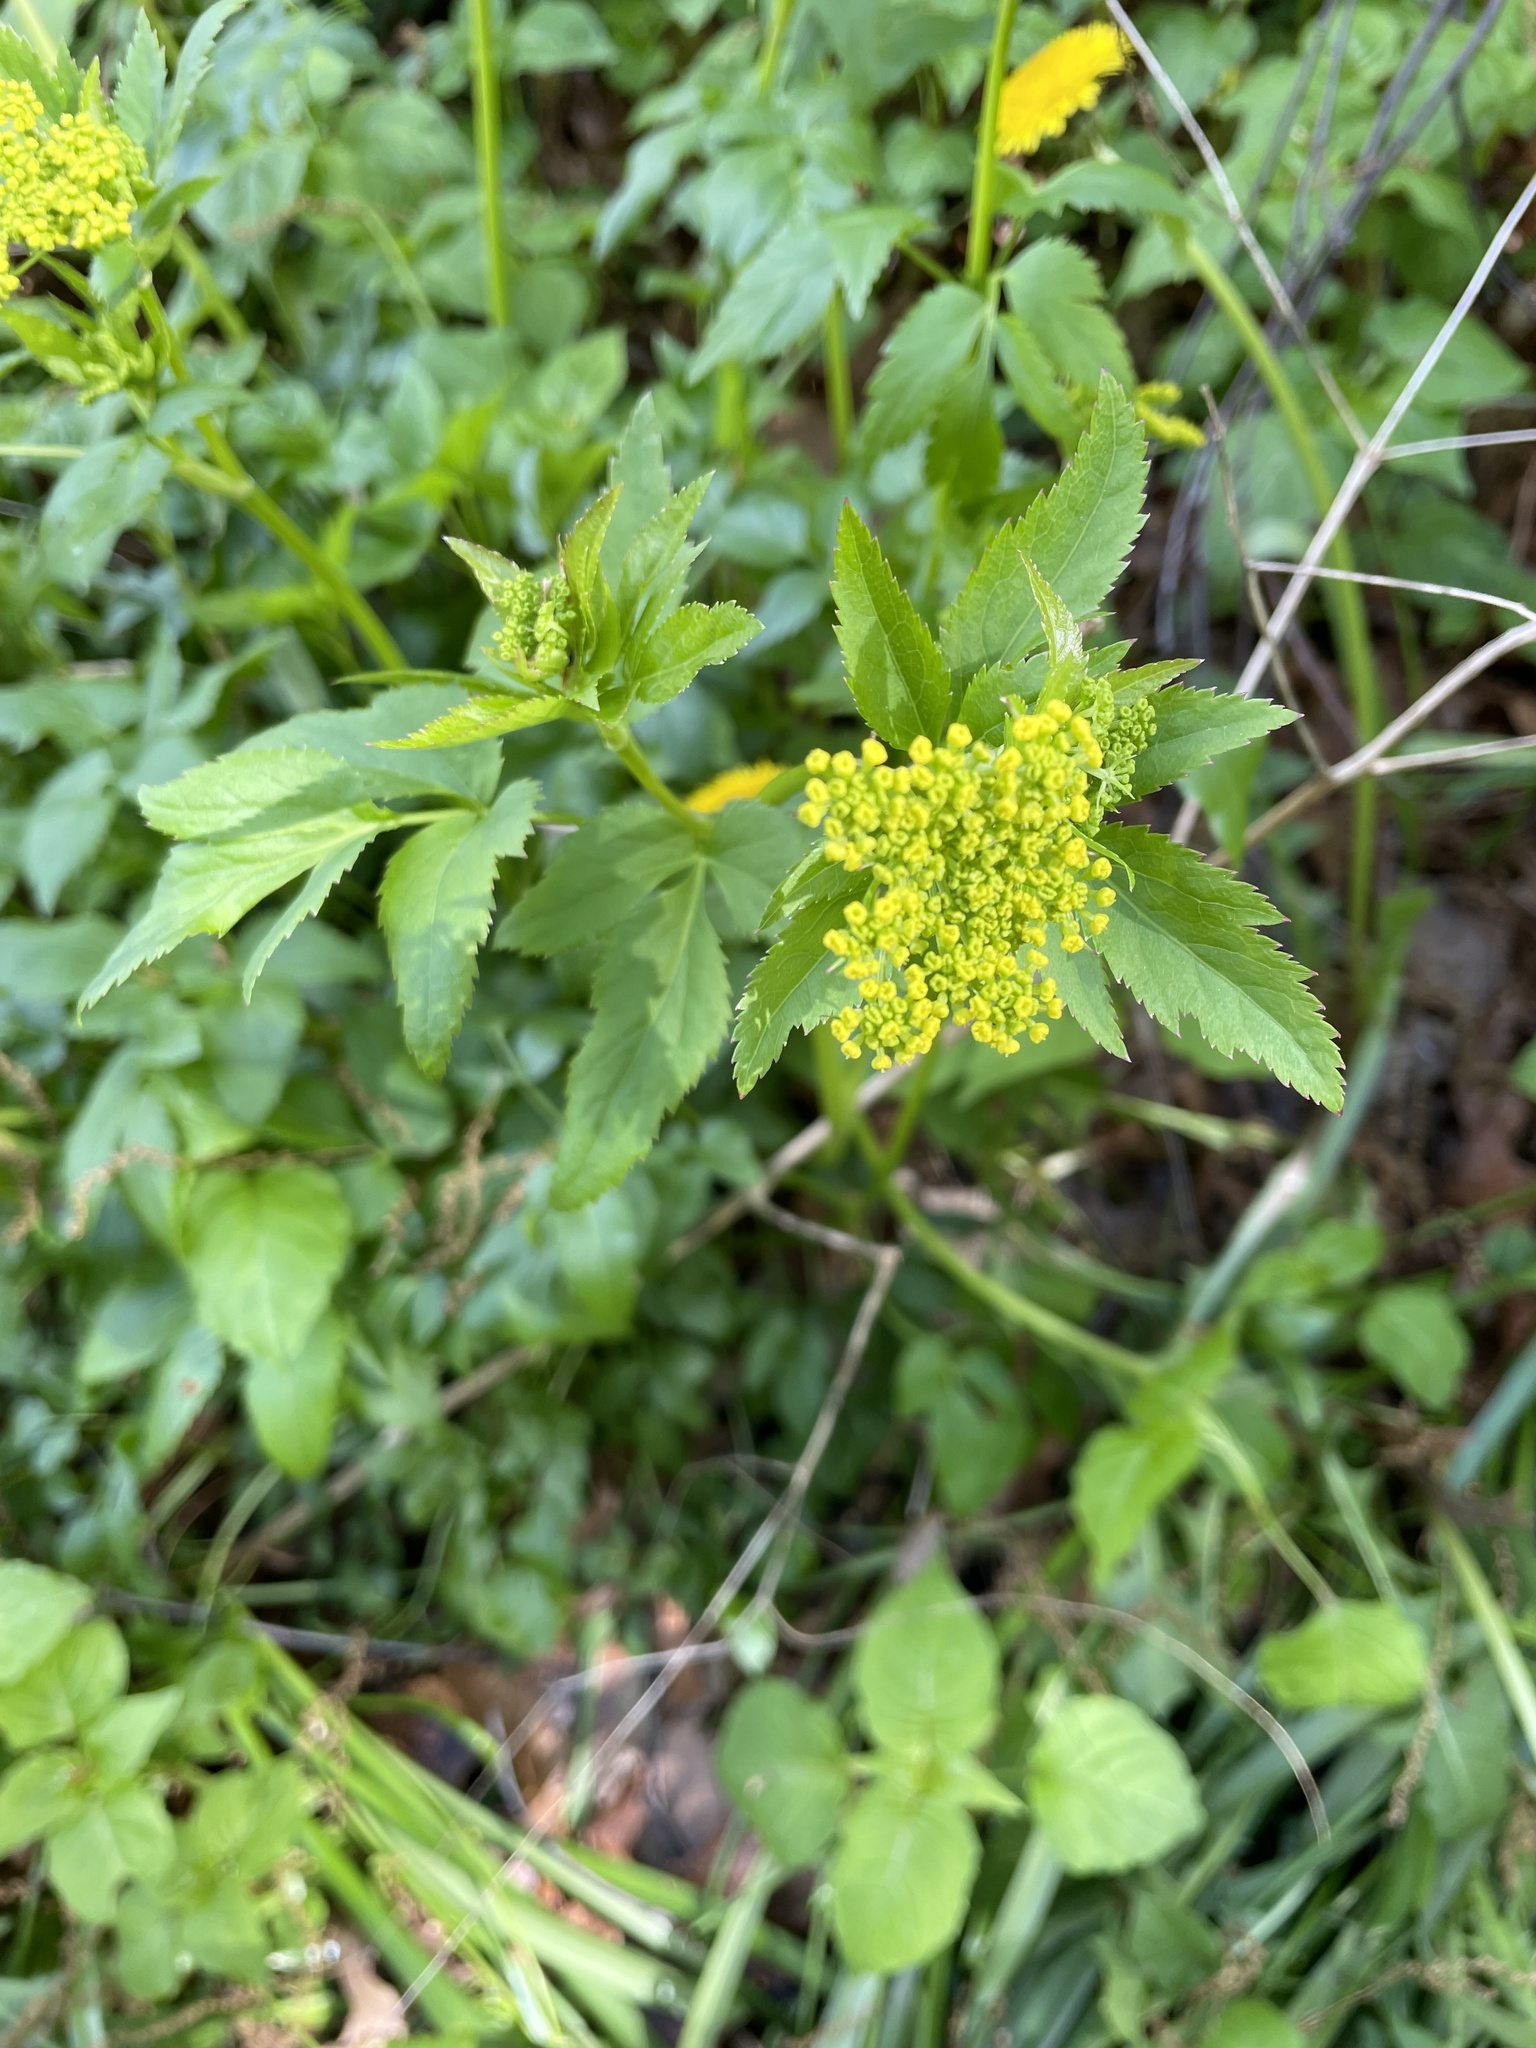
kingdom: Plantae
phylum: Tracheophyta
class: Magnoliopsida
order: Apiales
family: Apiaceae
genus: Zizia
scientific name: Zizia aurea
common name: Golden alexanders
